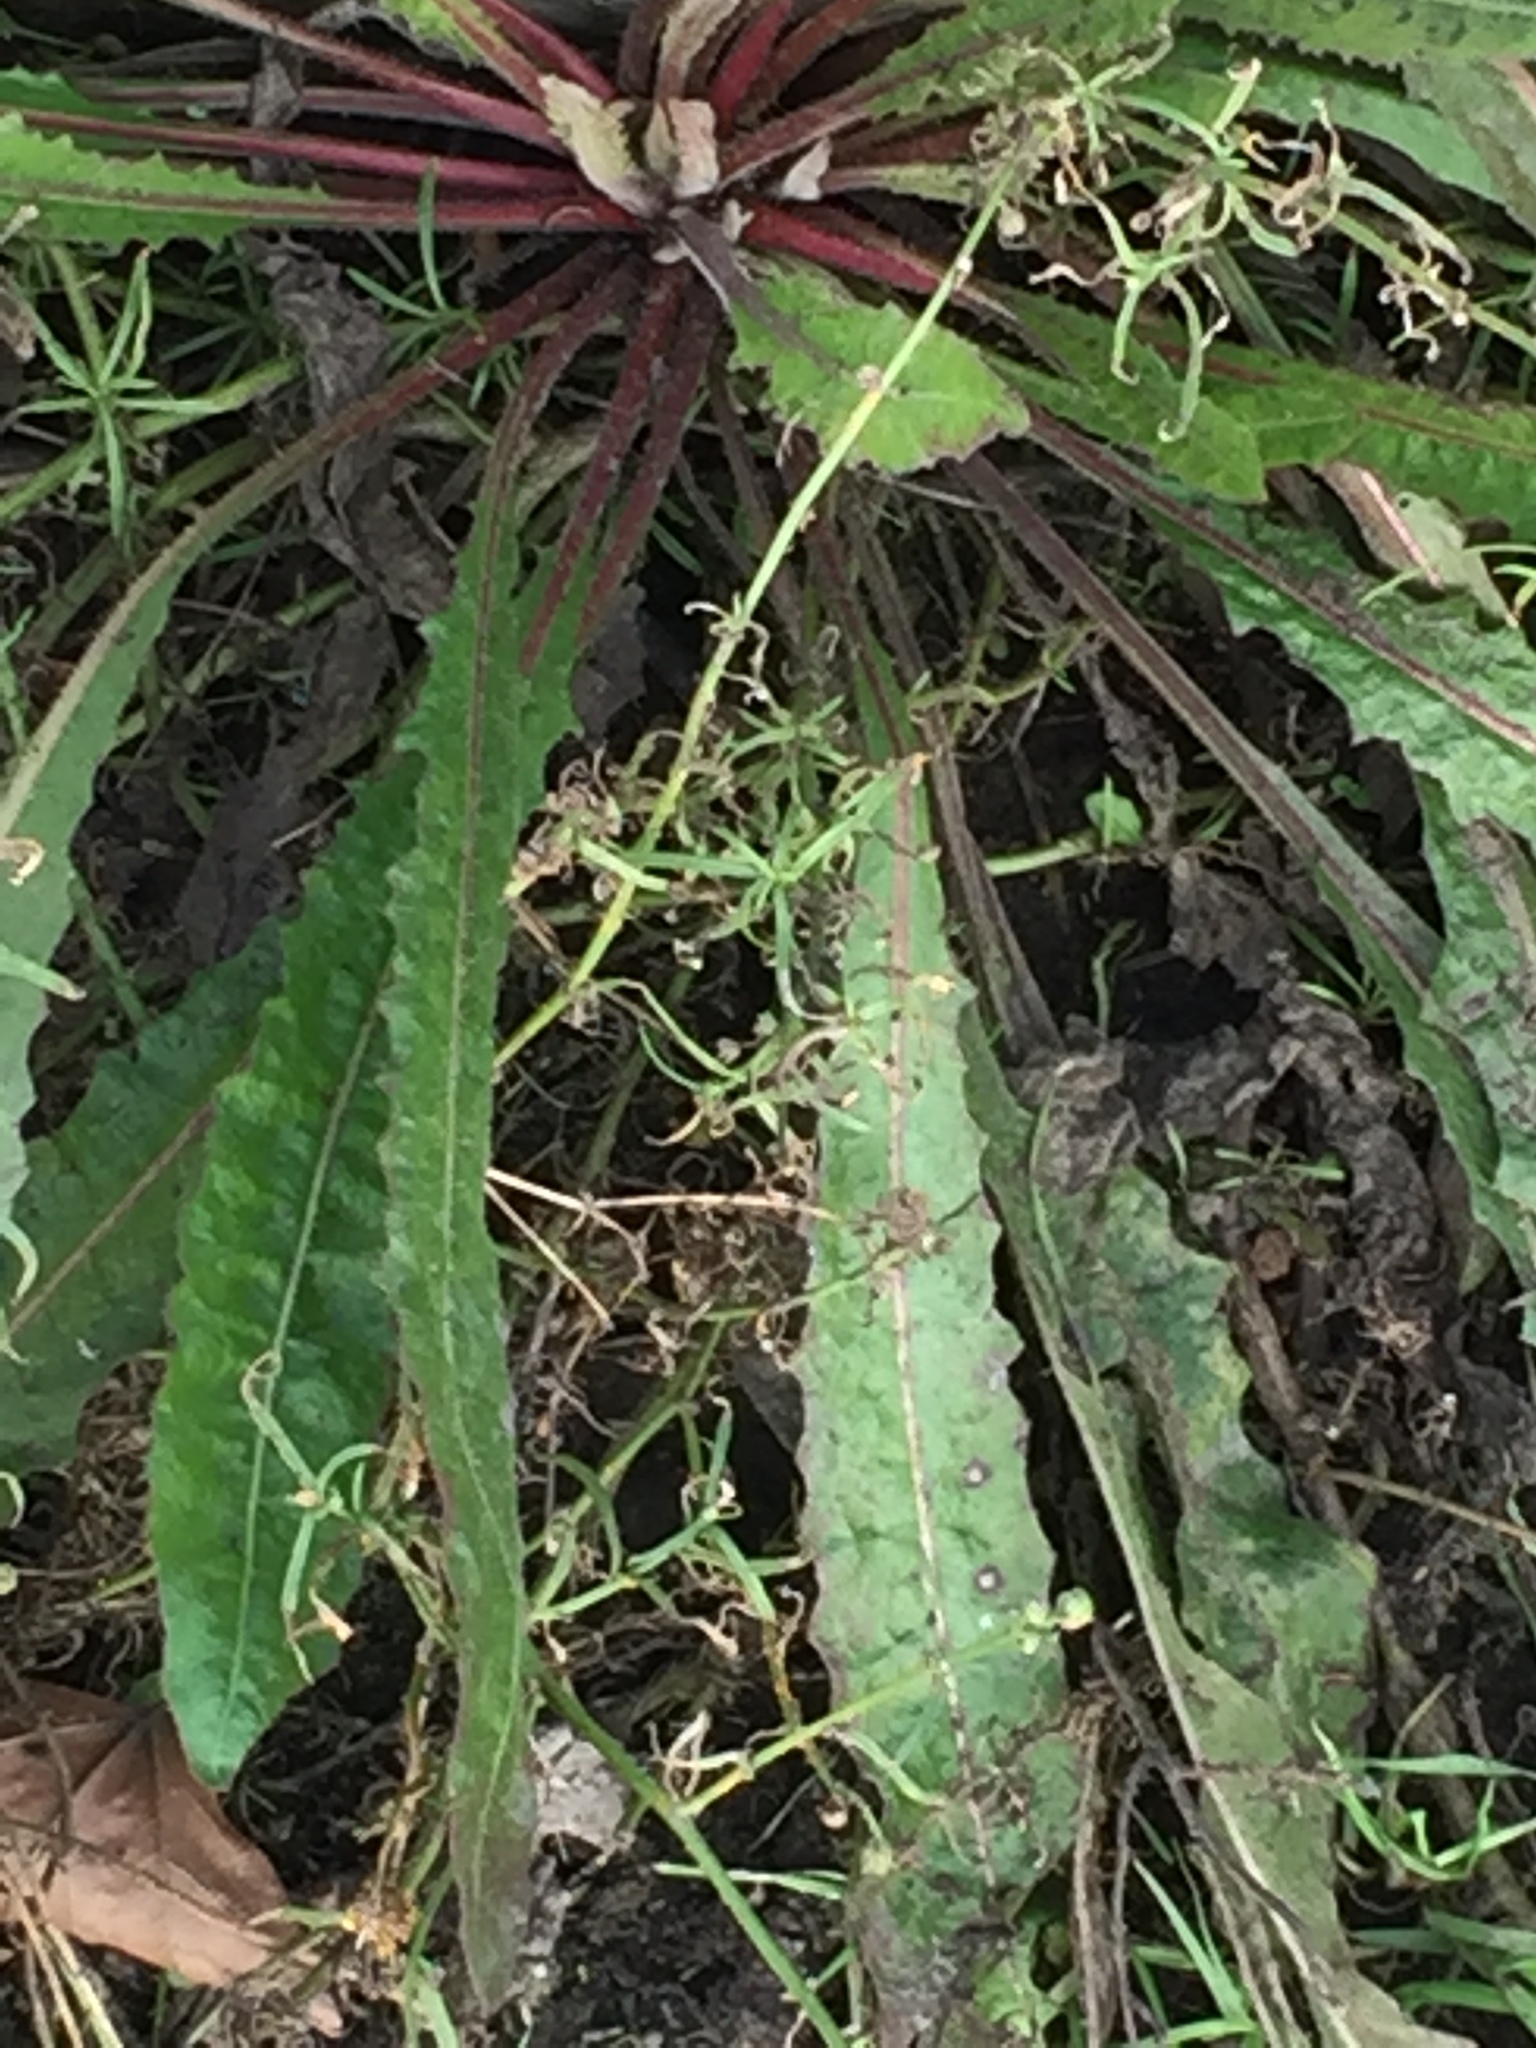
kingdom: Plantae
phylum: Tracheophyta
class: Magnoliopsida
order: Asterales
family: Asteraceae
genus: Helminthotheca
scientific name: Helminthotheca echioides
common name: Ox-tongue
